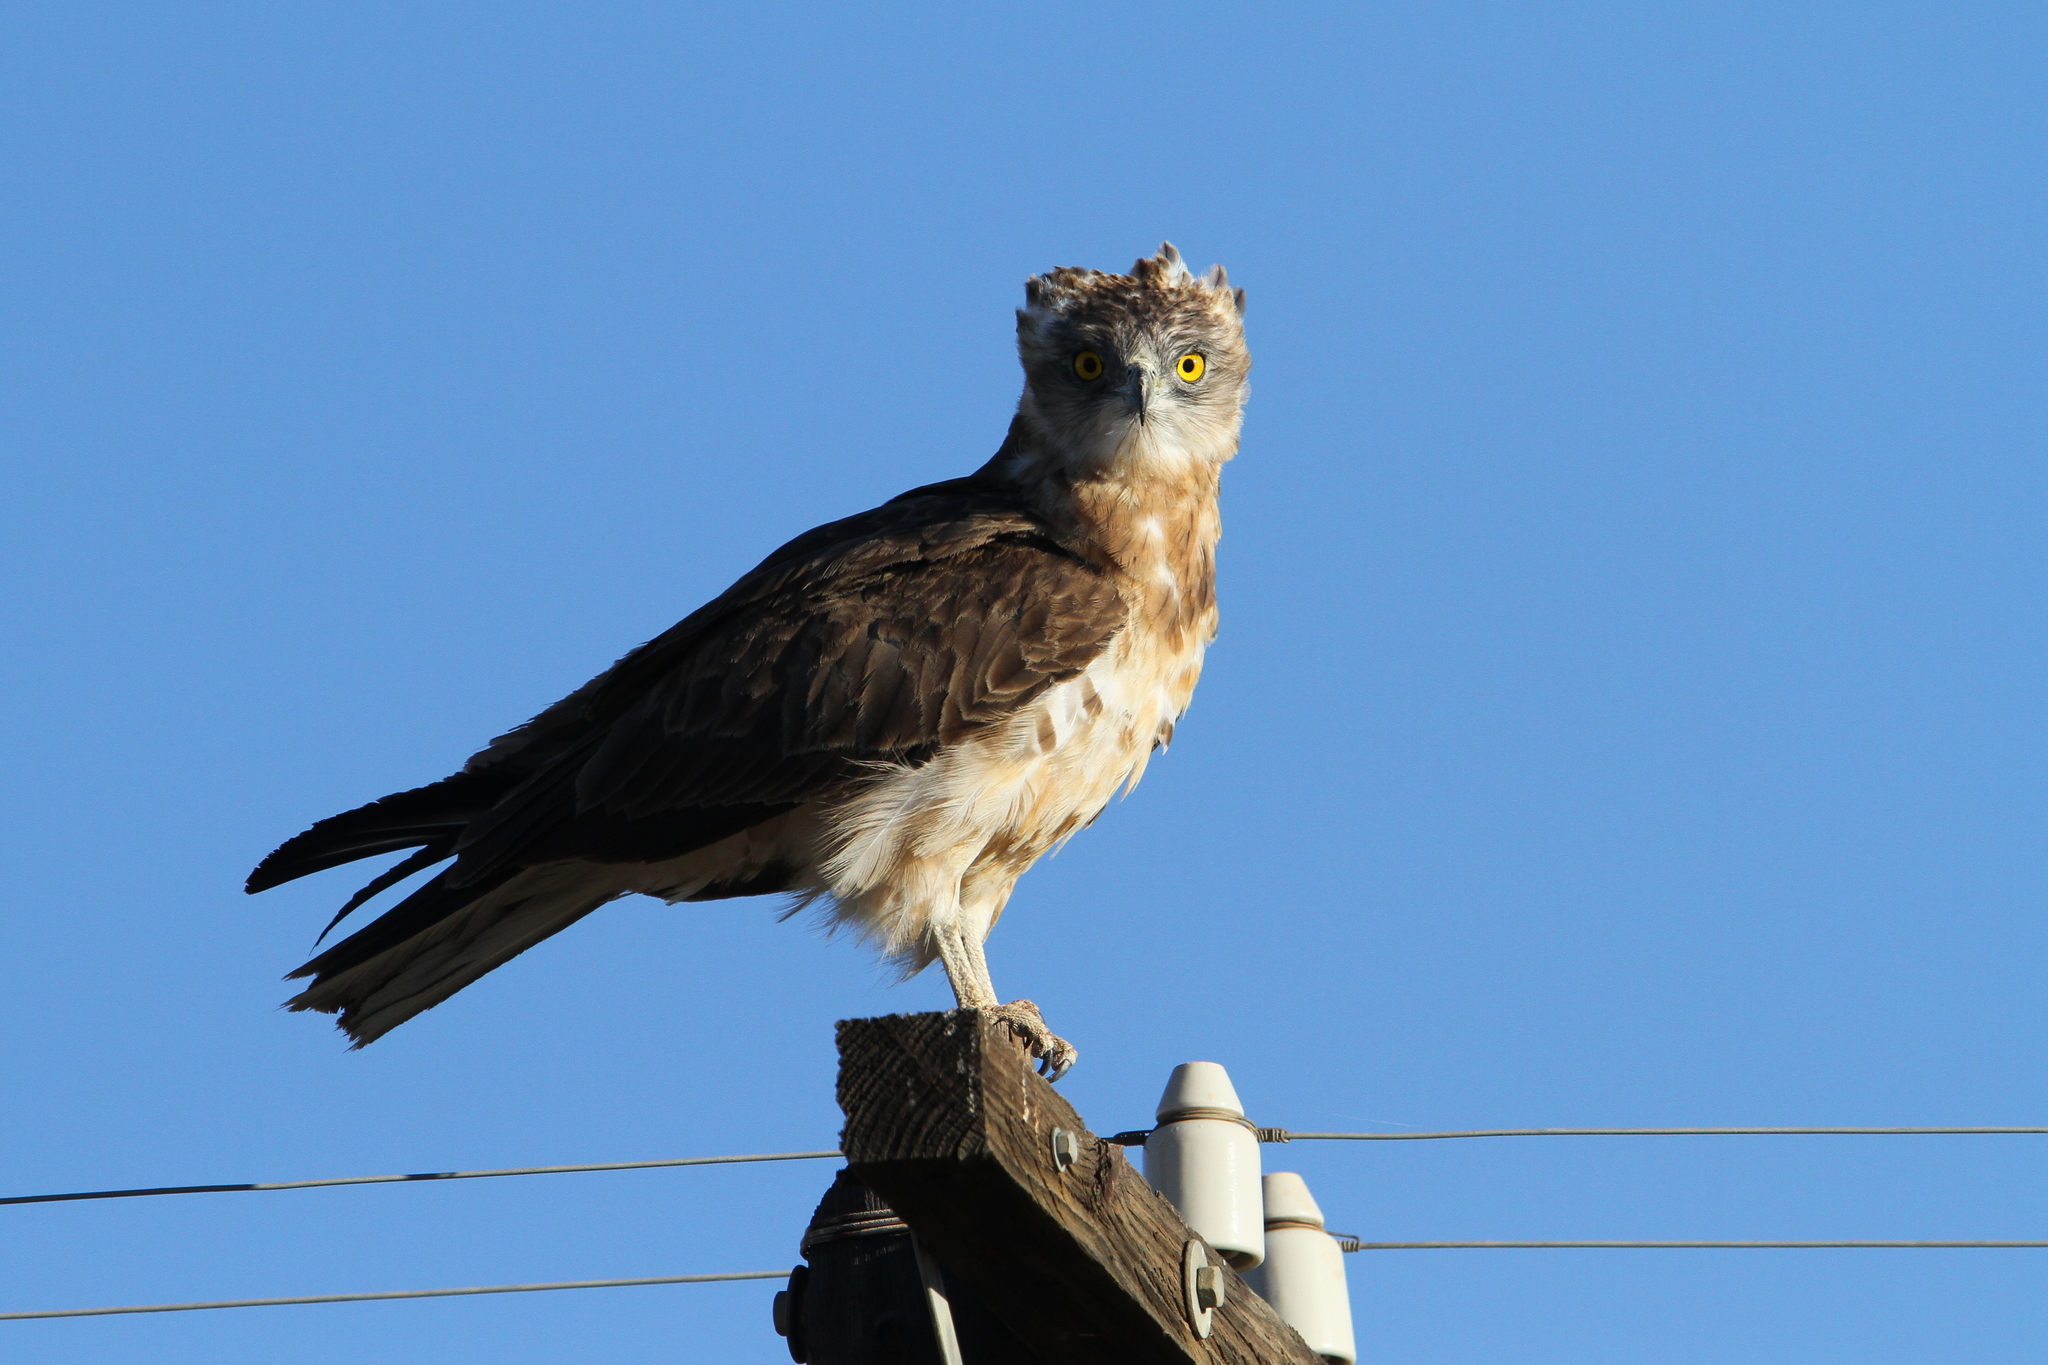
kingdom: Animalia
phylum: Chordata
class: Aves
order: Accipitriformes
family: Accipitridae
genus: Circaetus
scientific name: Circaetus pectoralis
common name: Black-chested snake eagle
